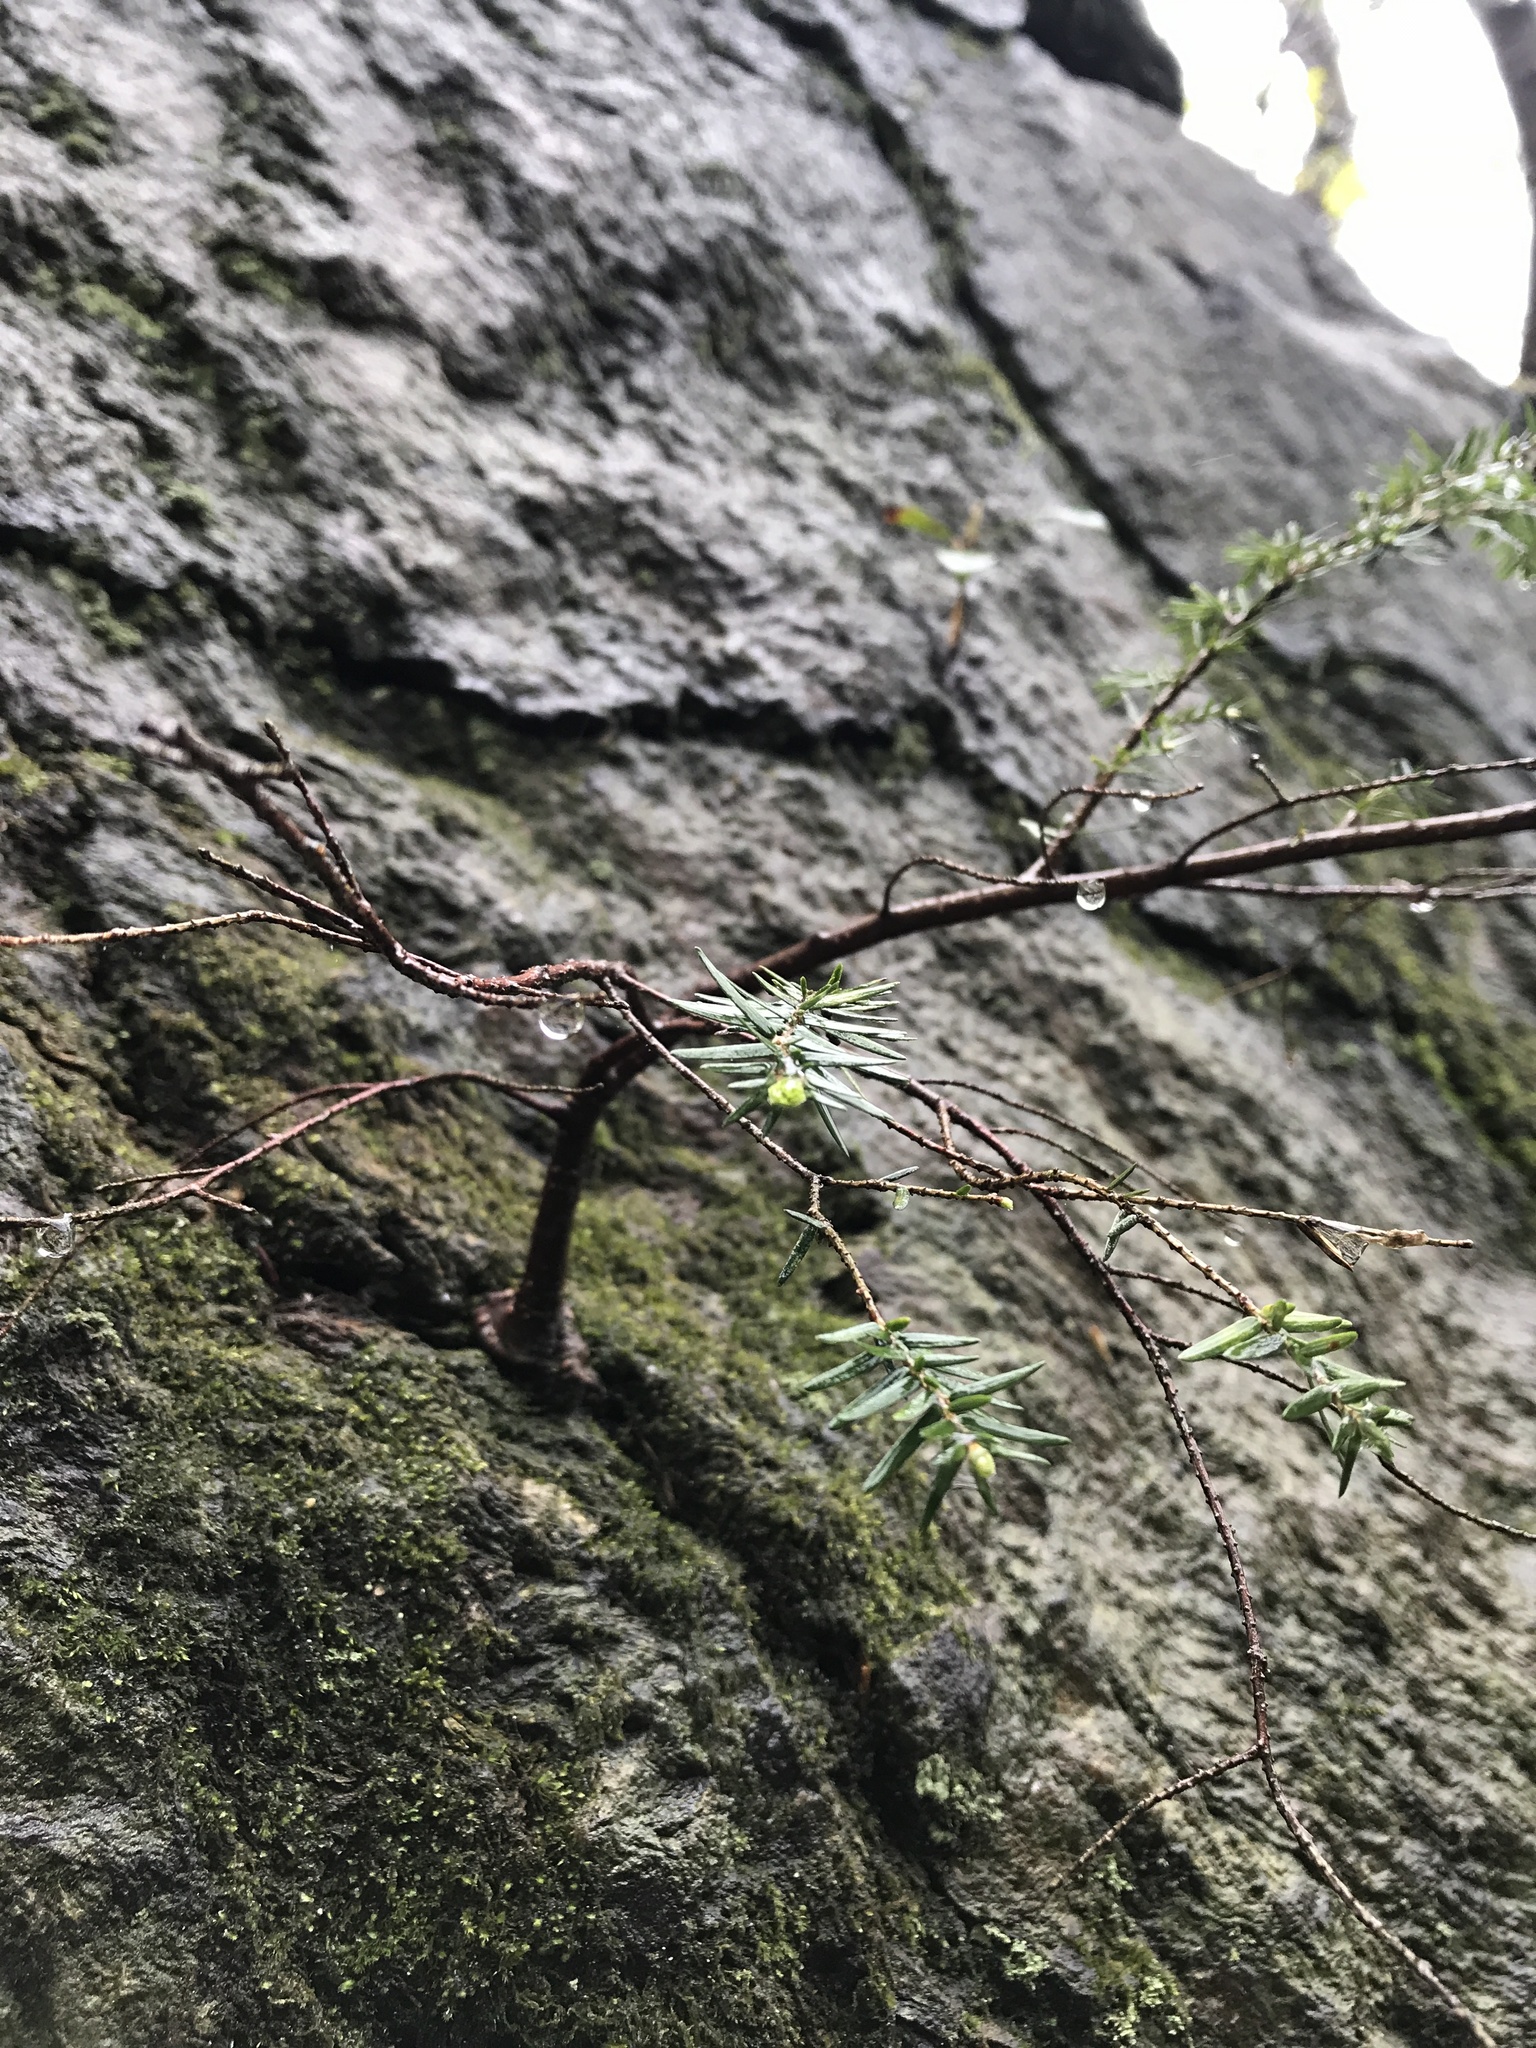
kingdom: Plantae
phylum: Tracheophyta
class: Pinopsida
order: Pinales
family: Pinaceae
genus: Tsuga
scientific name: Tsuga canadensis
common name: Eastern hemlock
